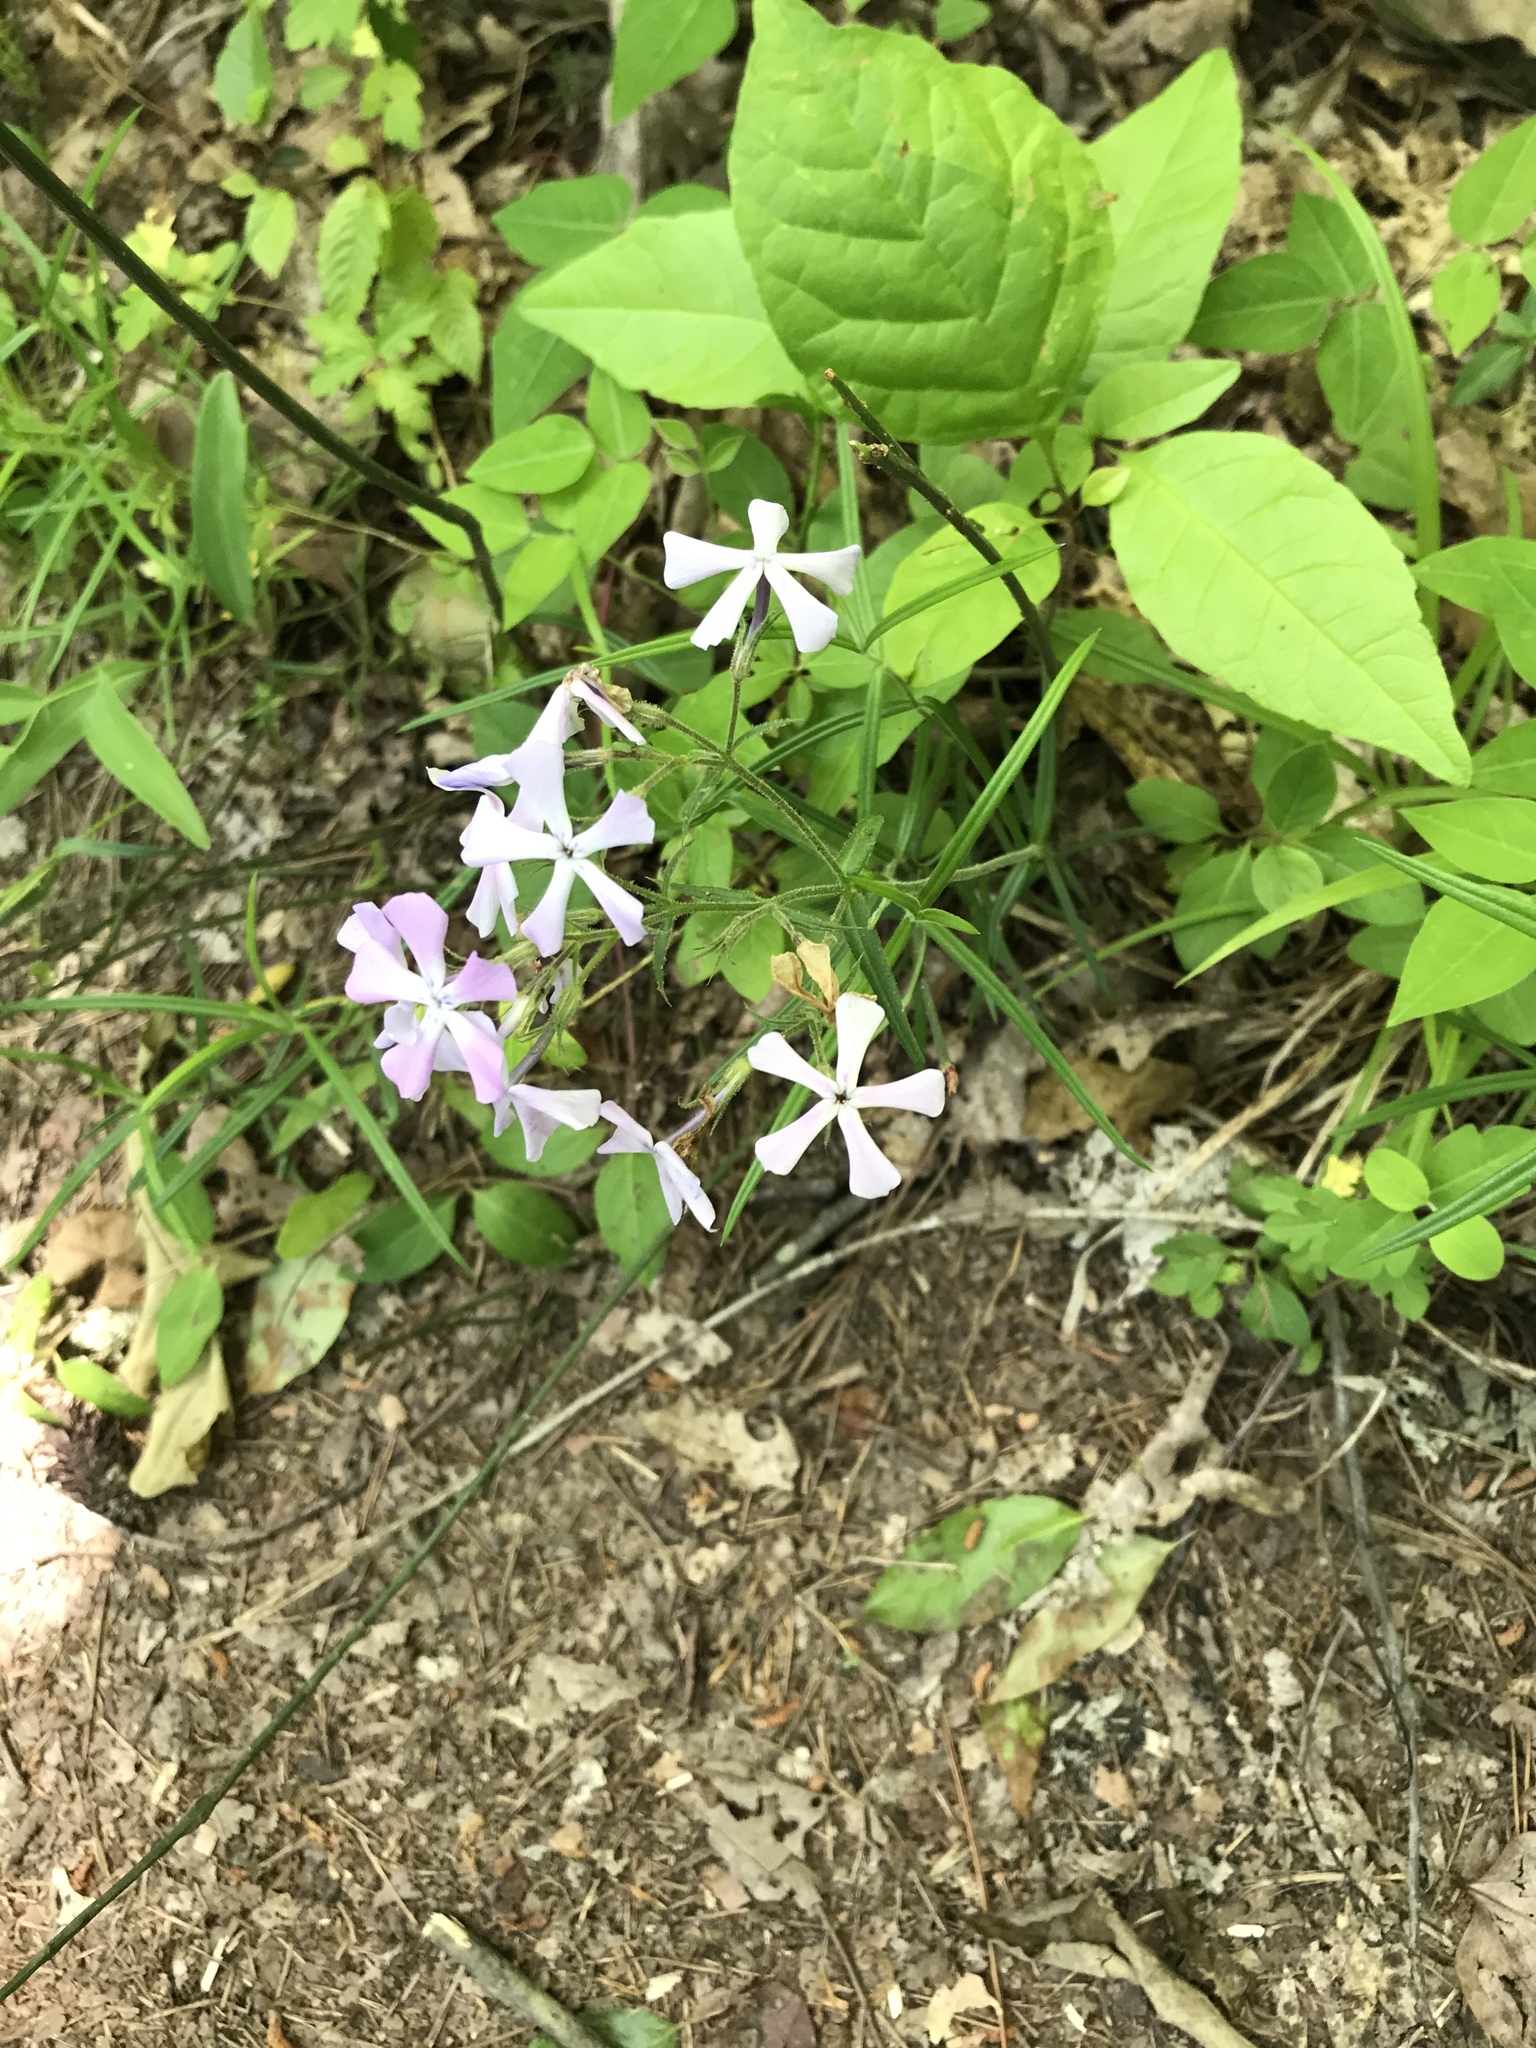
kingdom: Plantae
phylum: Tracheophyta
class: Magnoliopsida
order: Ericales
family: Polemoniaceae
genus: Phlox
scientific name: Phlox pilosa
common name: Prairie phlox
